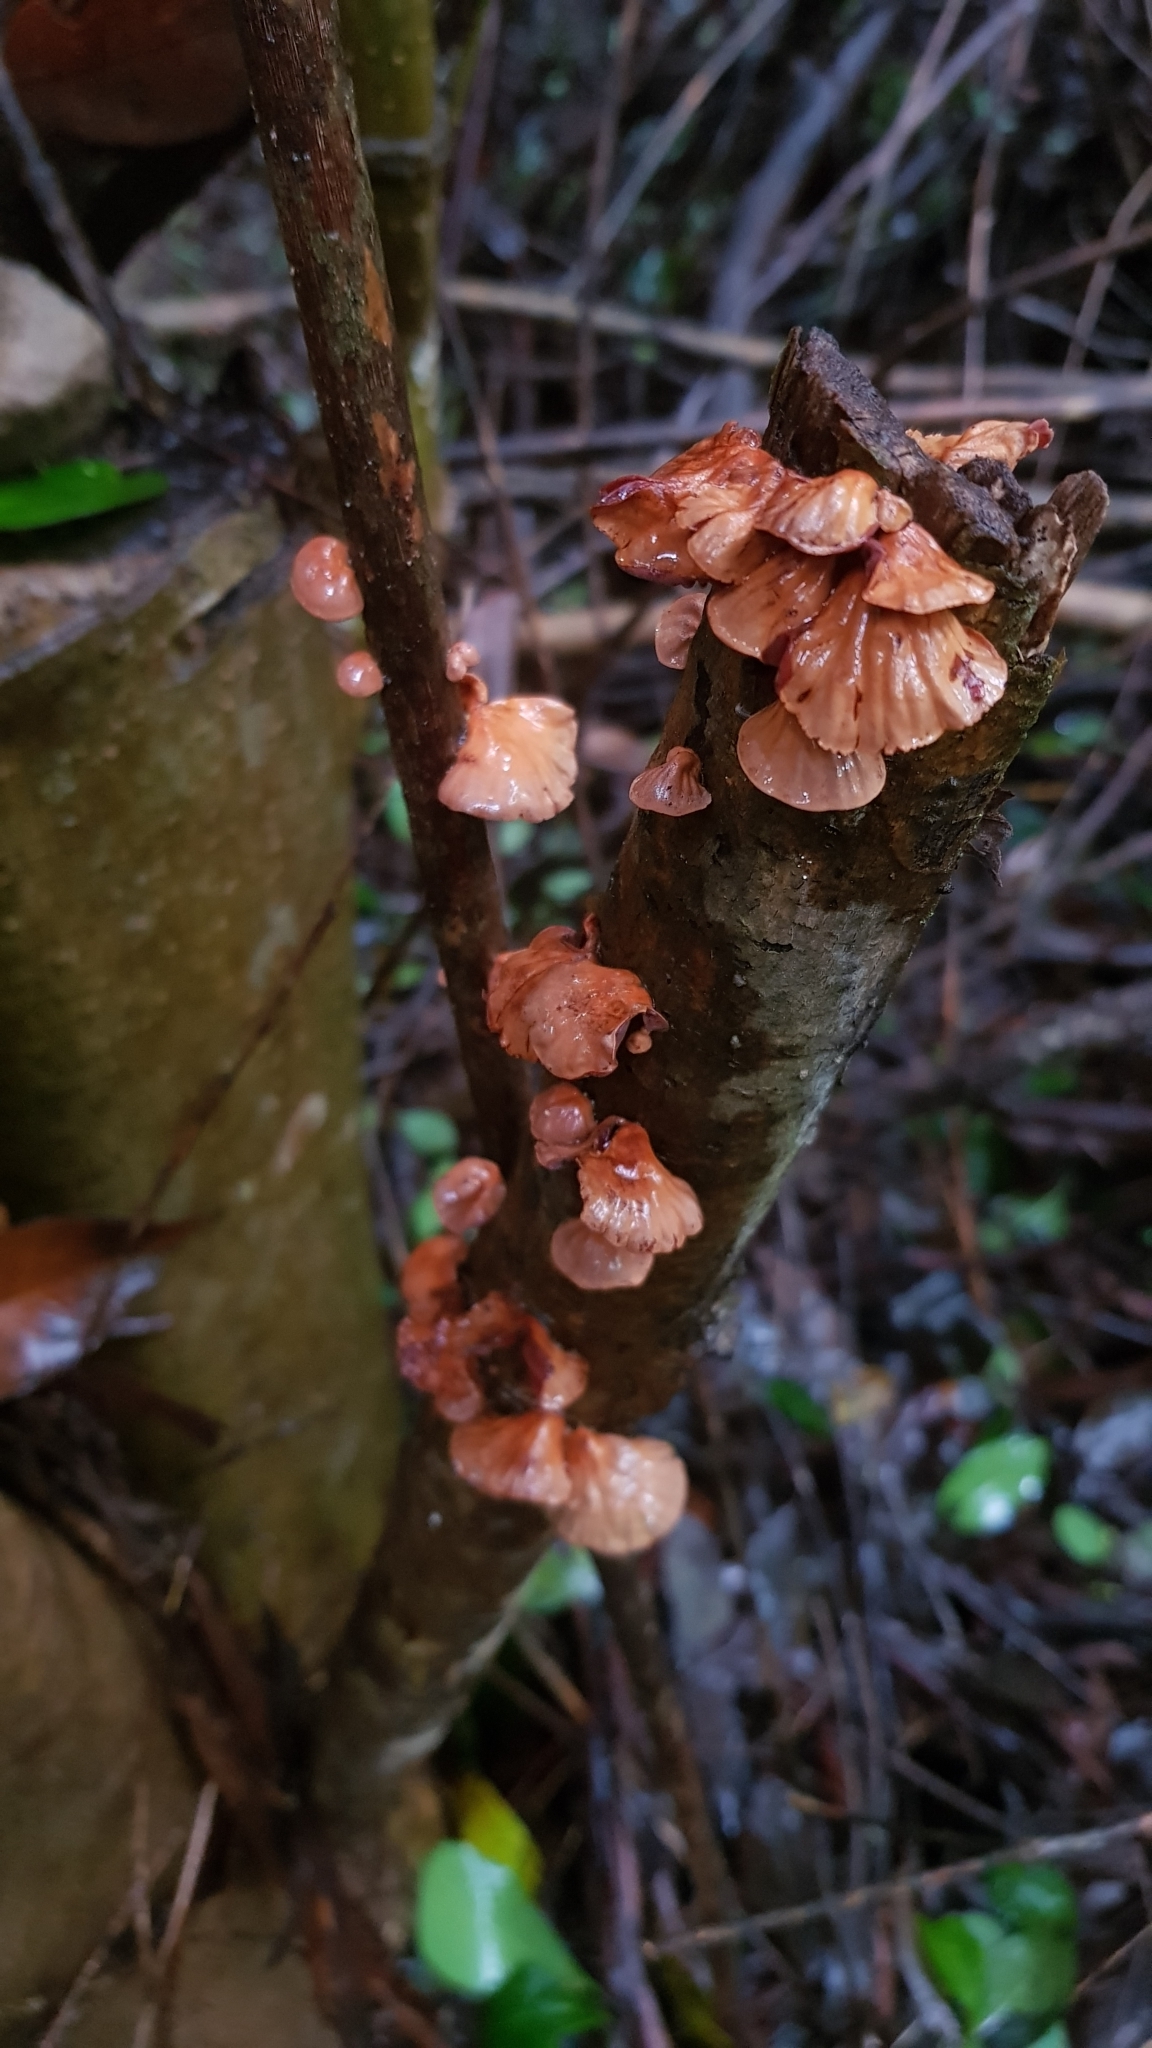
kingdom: Fungi
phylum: Basidiomycota
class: Agaricomycetes
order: Agaricales
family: Omphalotaceae
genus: Anthracophyllum
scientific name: Anthracophyllum archeri
